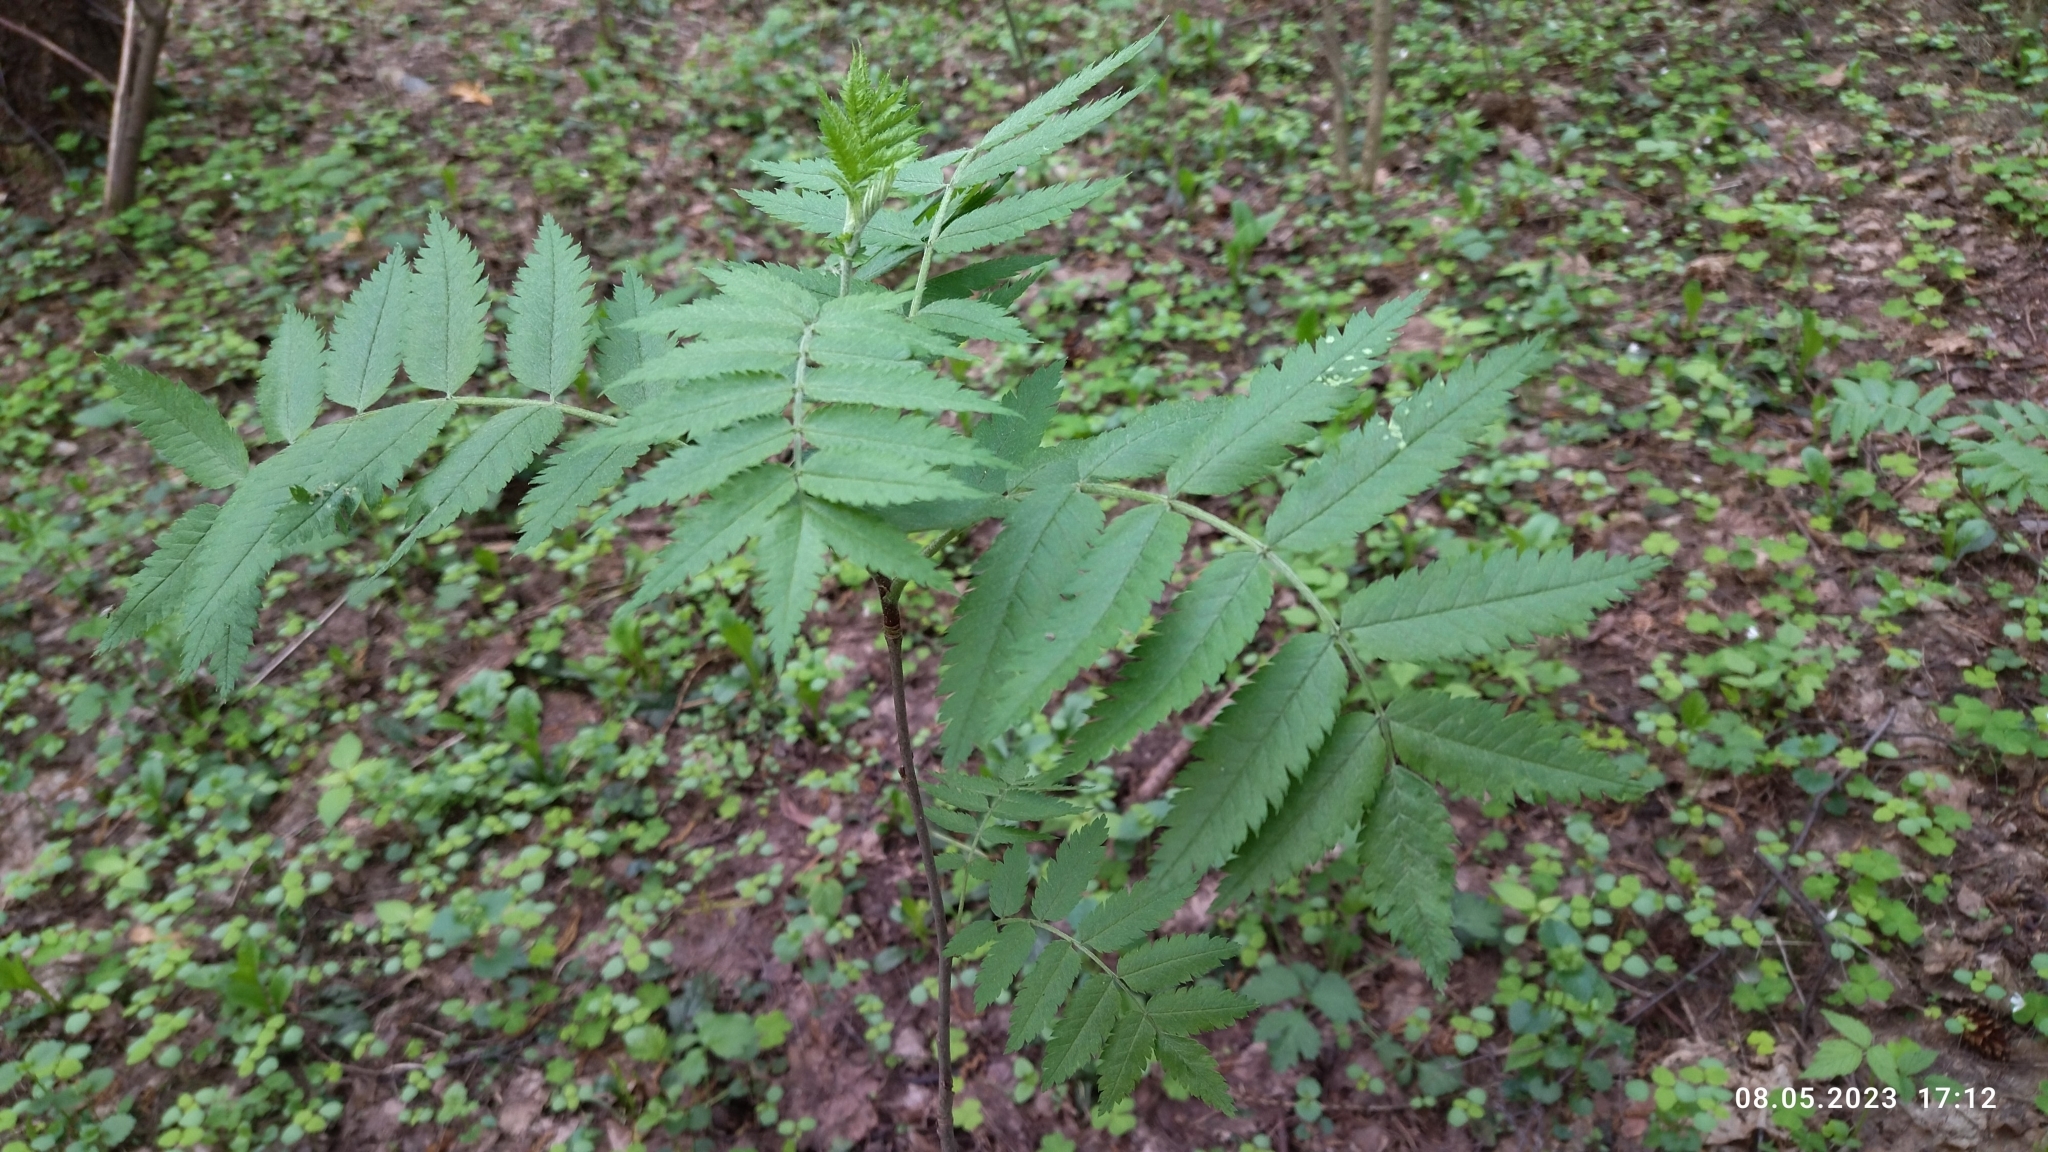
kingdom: Plantae
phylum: Tracheophyta
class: Magnoliopsida
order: Rosales
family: Rosaceae
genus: Sorbus
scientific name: Sorbus aucuparia
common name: Rowan
